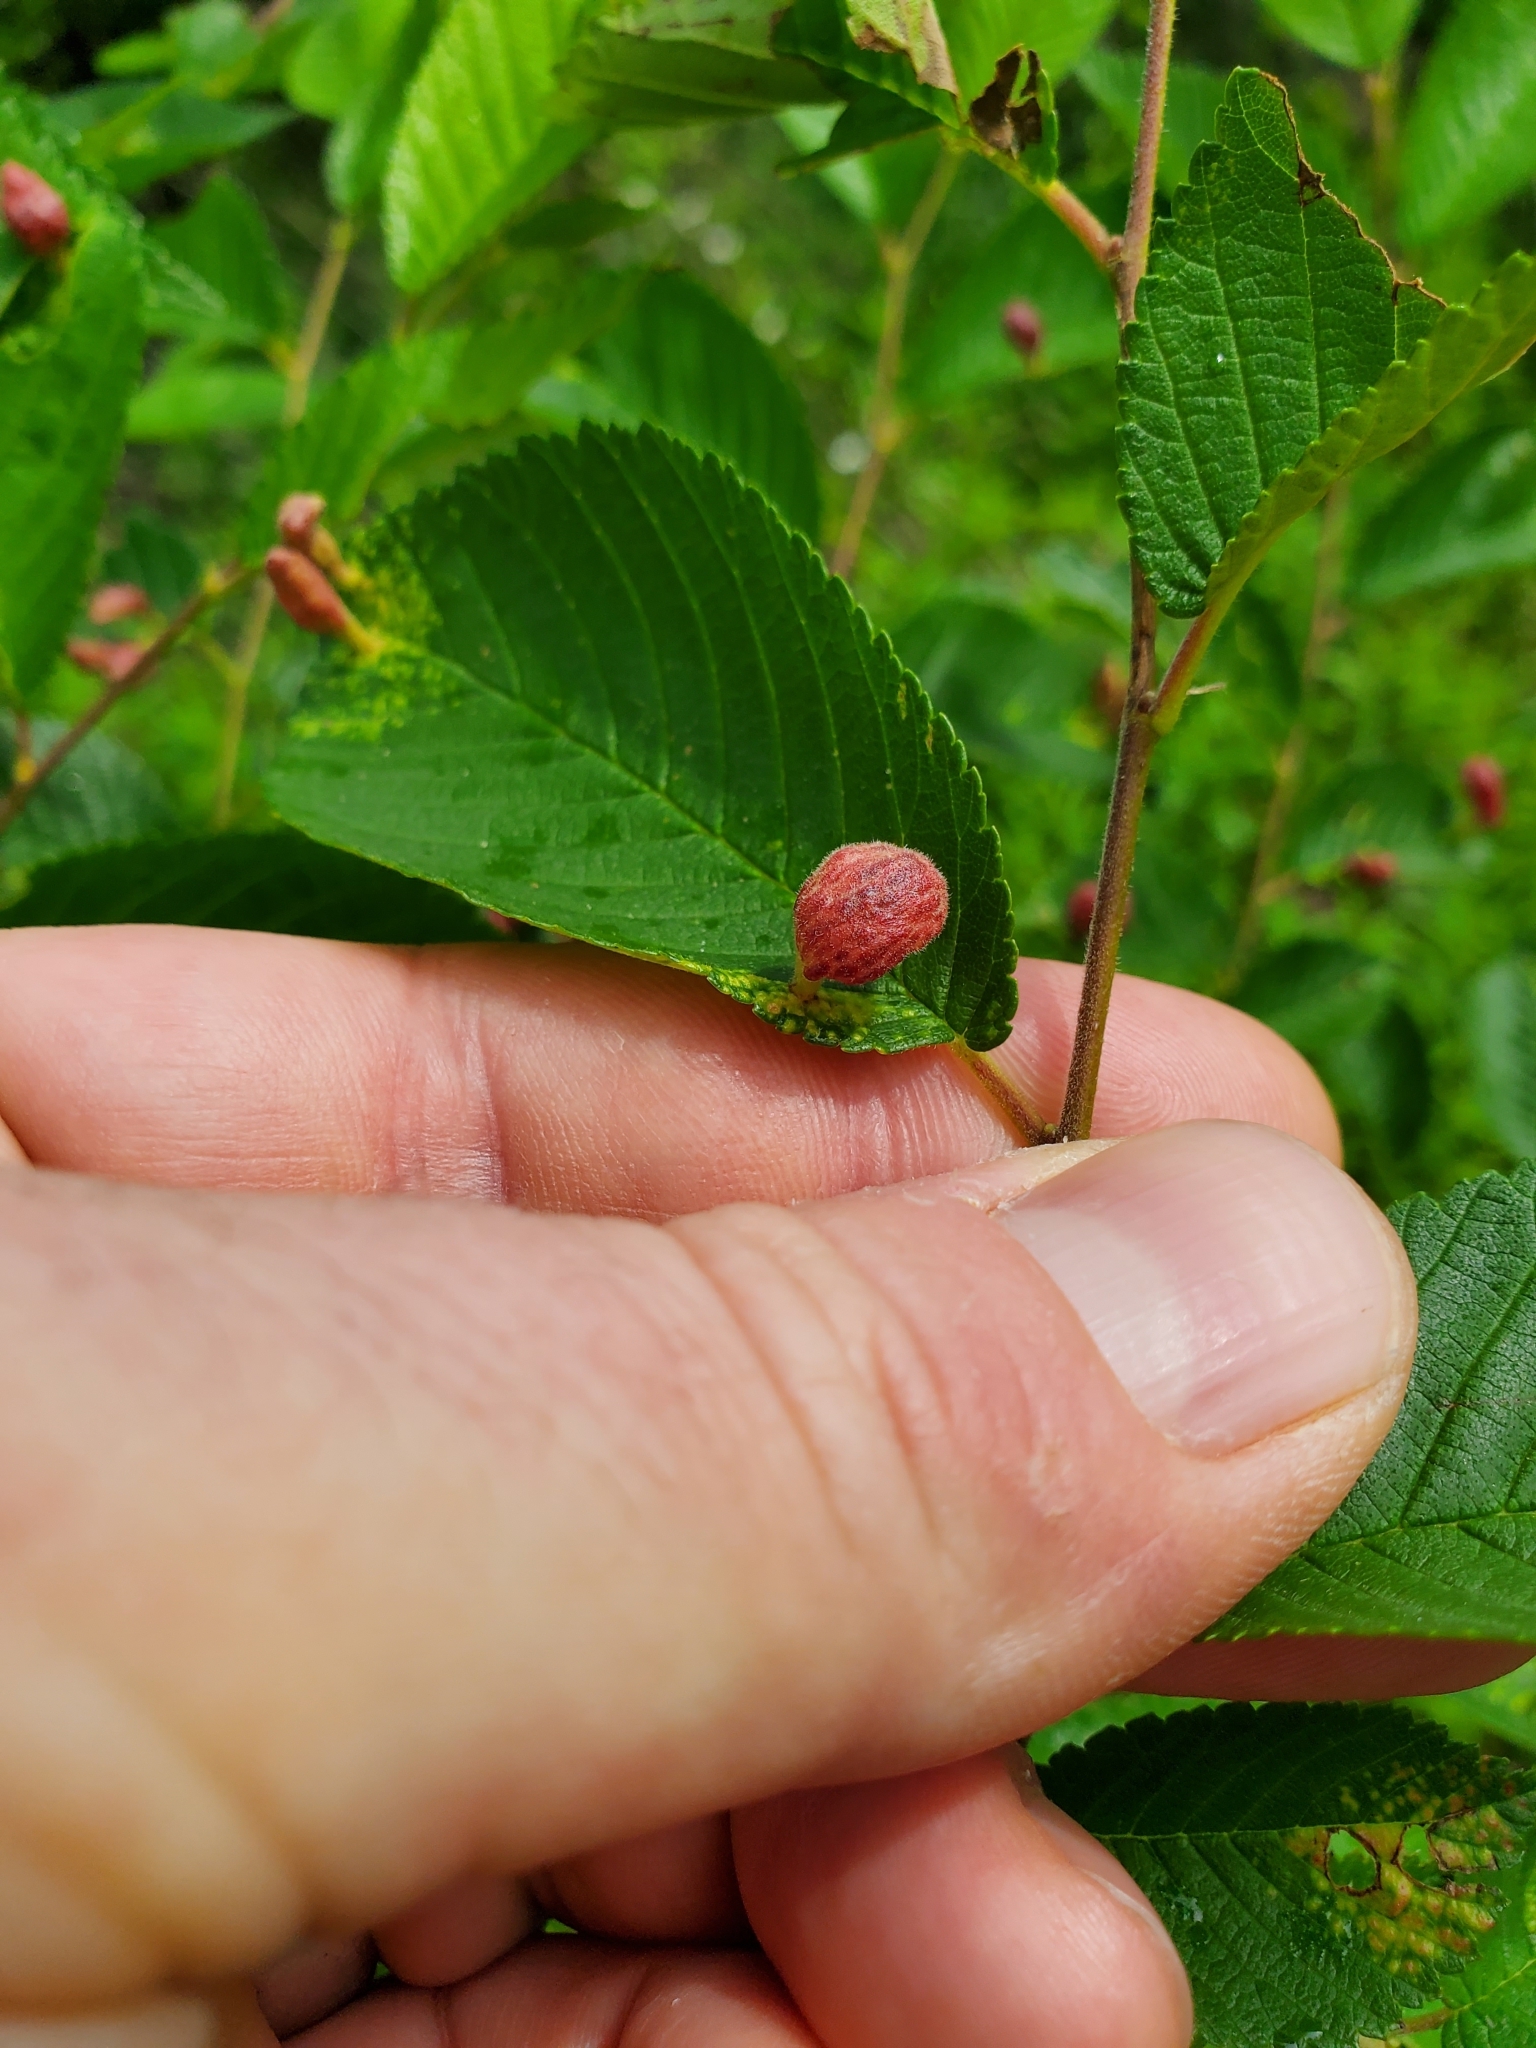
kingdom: Animalia
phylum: Arthropoda
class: Insecta
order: Hemiptera
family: Aphididae
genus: Tetraneura
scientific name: Tetraneura nigriabdominalis
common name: Aphid
